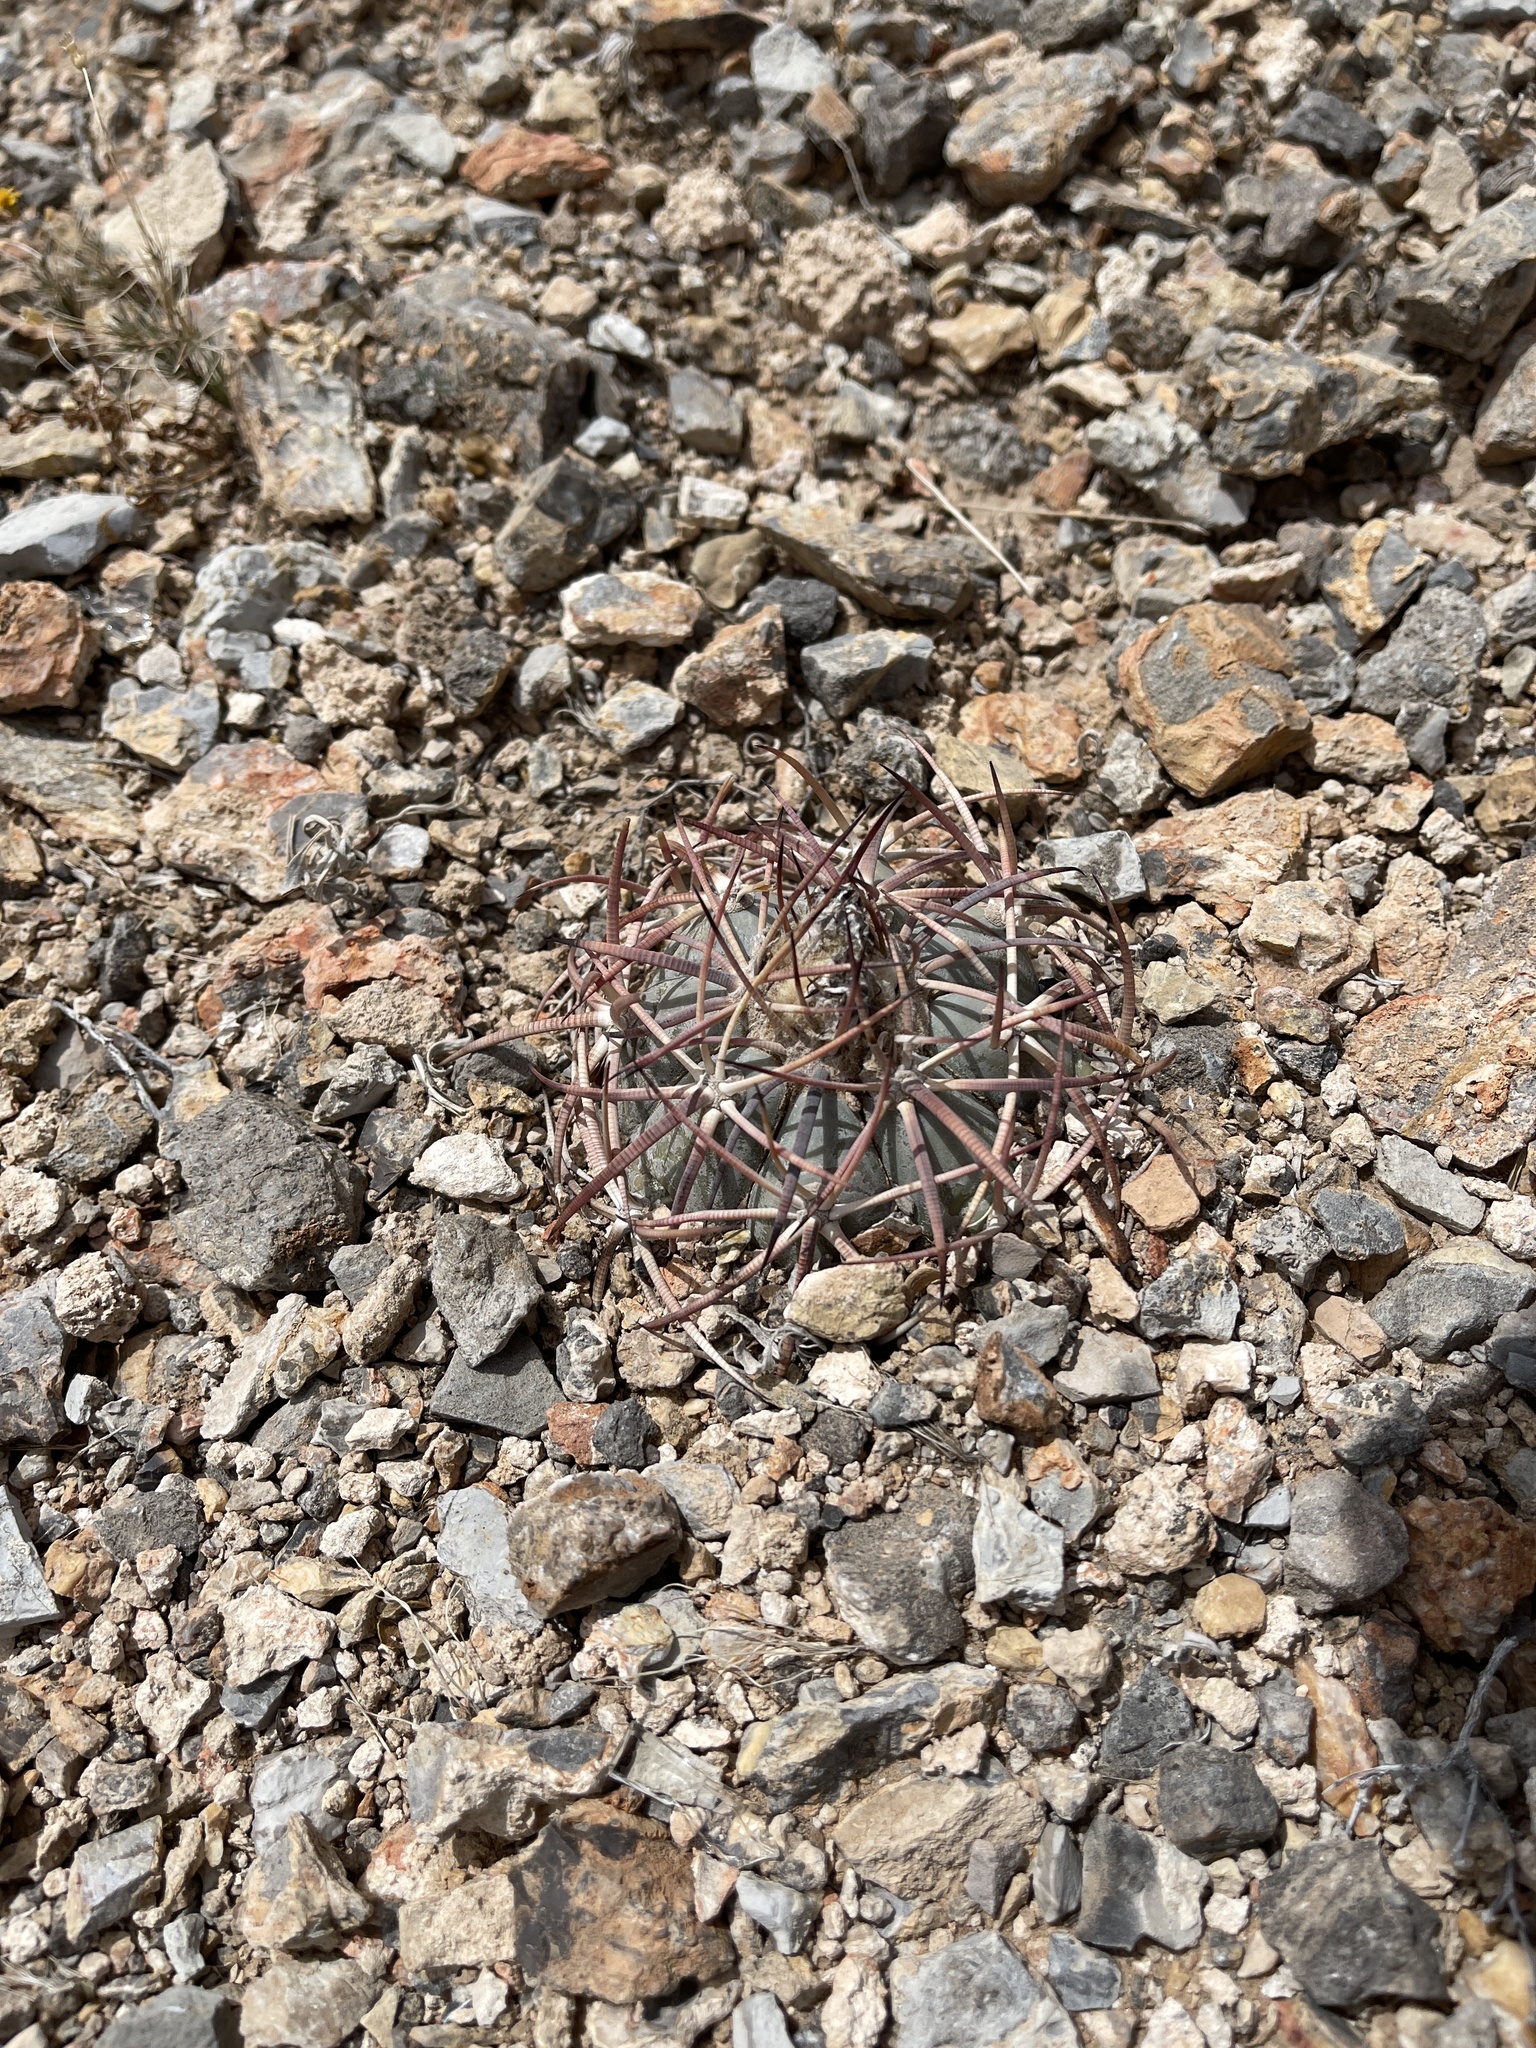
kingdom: Plantae
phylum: Tracheophyta
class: Magnoliopsida
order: Caryophyllales
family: Cactaceae
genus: Echinocactus
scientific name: Echinocactus horizonthalonius
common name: Devilshead
